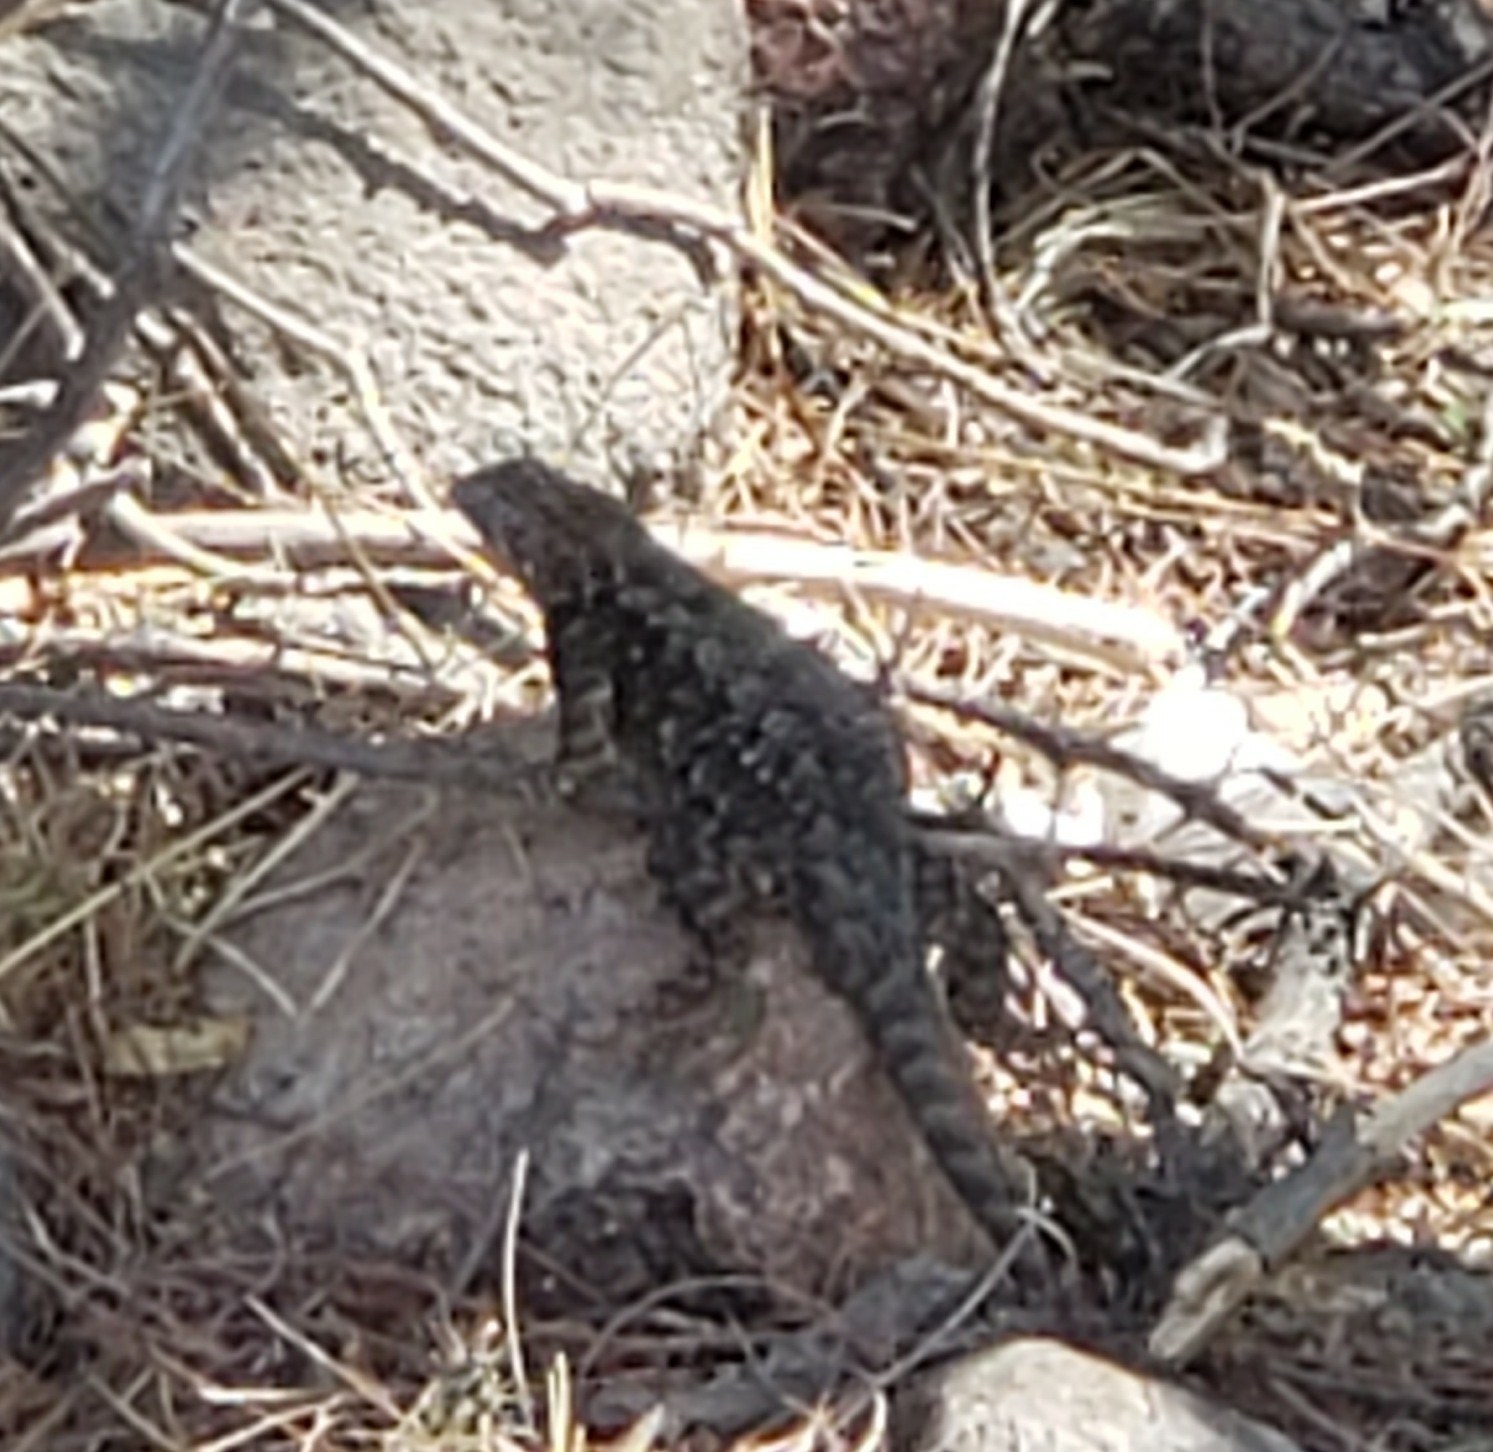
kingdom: Animalia
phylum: Chordata
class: Squamata
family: Phrynosomatidae
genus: Sceloporus
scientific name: Sceloporus spinosus
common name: Blue-spotted spiny lizard [caeruleopunctatus]
